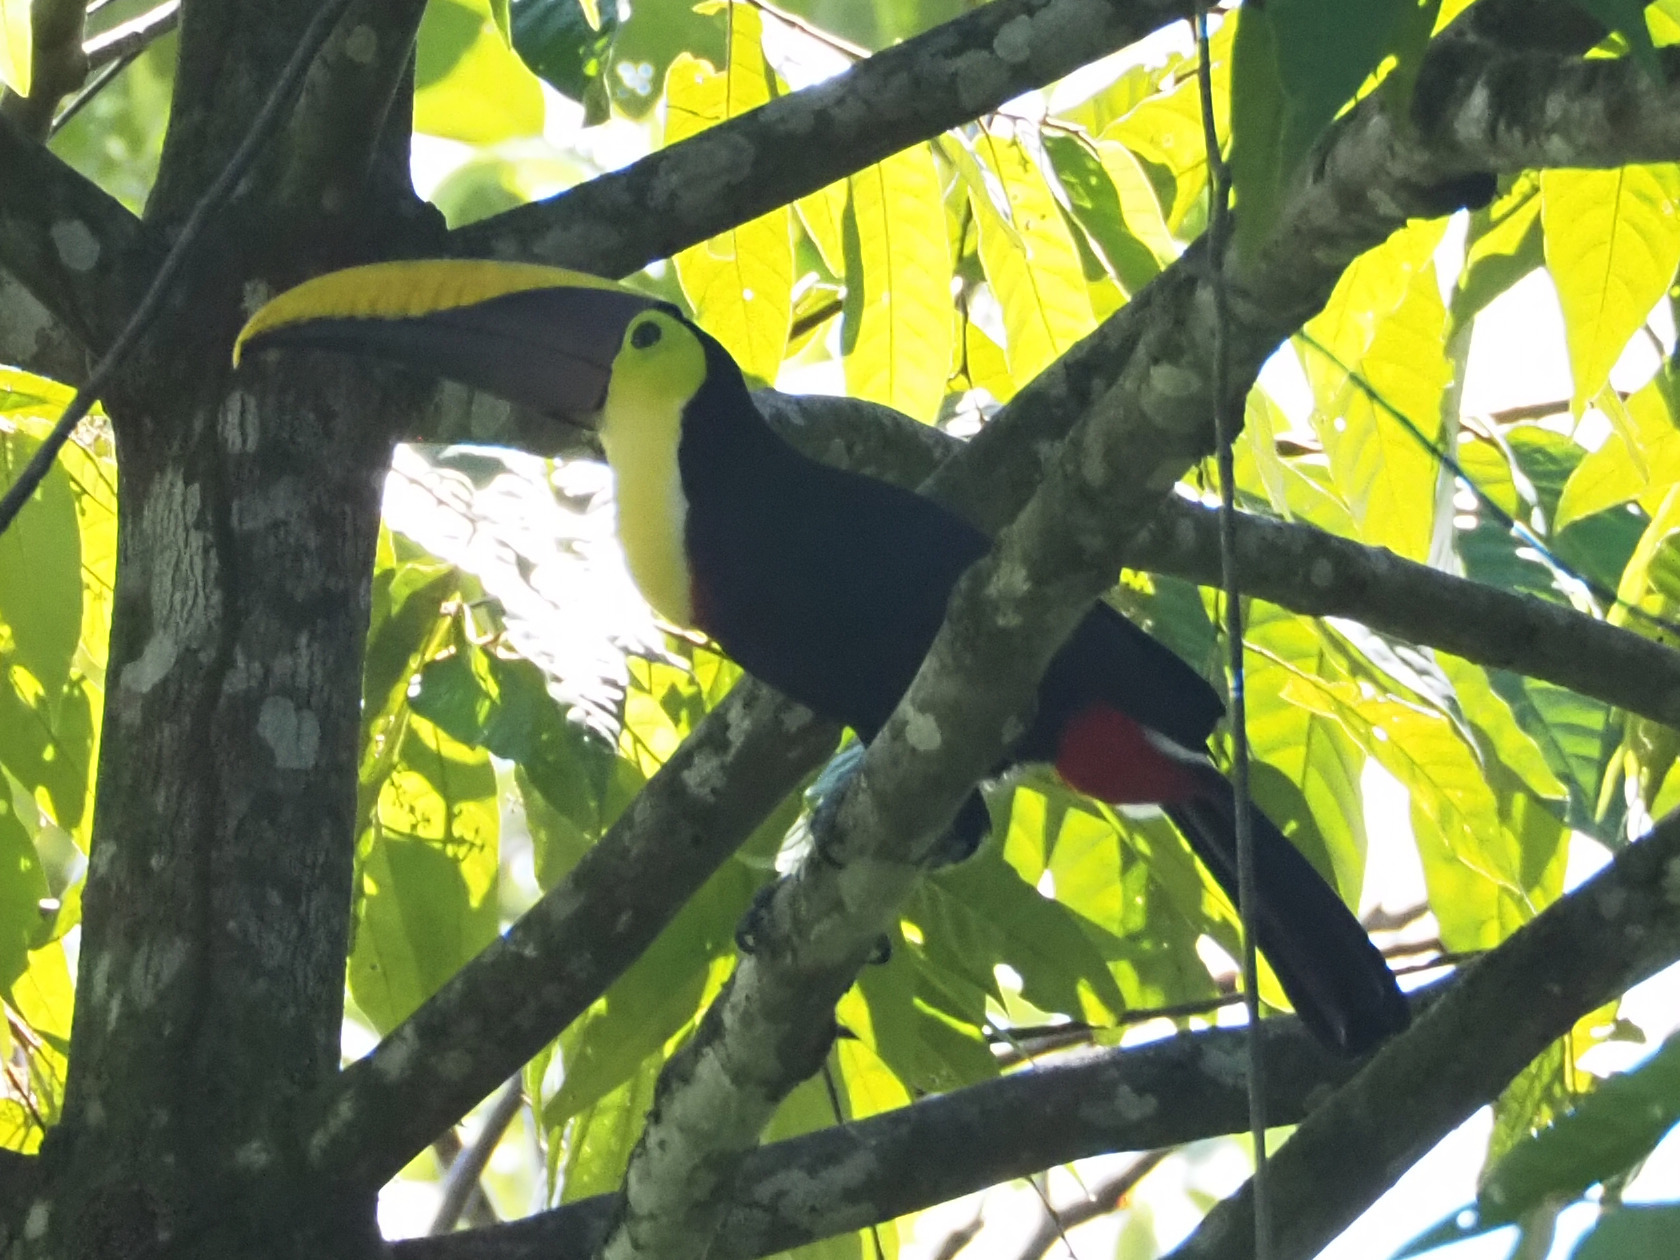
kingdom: Animalia
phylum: Chordata
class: Aves
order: Piciformes
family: Ramphastidae
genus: Ramphastos
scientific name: Ramphastos ambiguus
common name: Yellow-throated toucan
